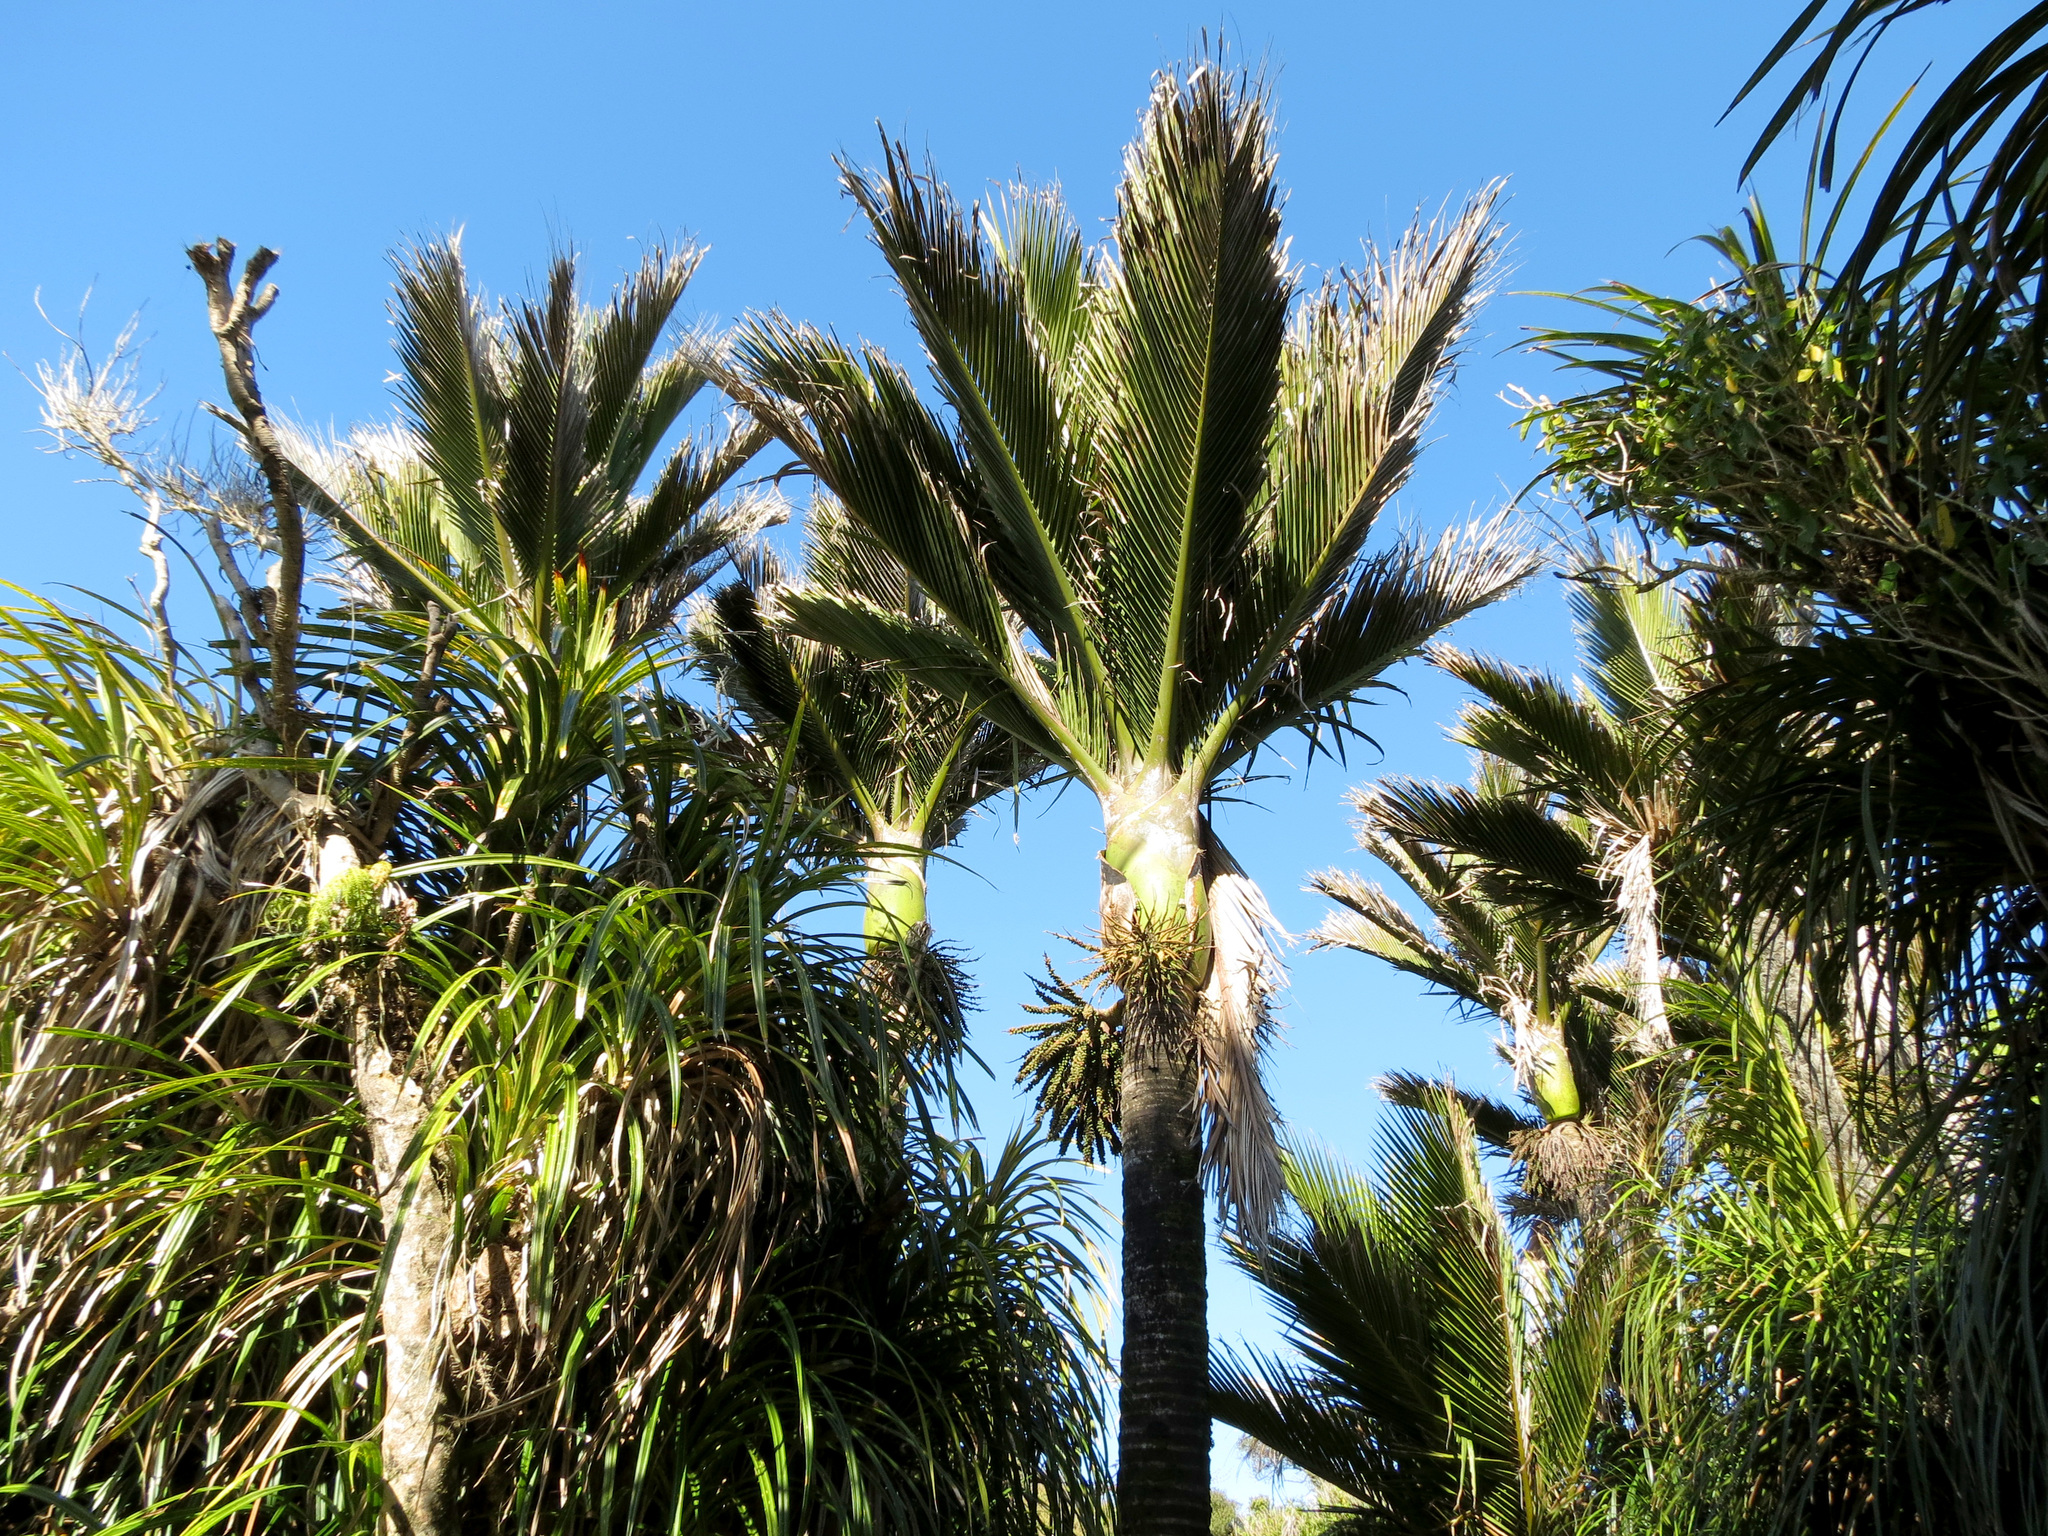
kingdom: Plantae
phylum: Tracheophyta
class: Liliopsida
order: Arecales
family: Arecaceae
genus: Rhopalostylis
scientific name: Rhopalostylis sapida
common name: Feather-duster palm
